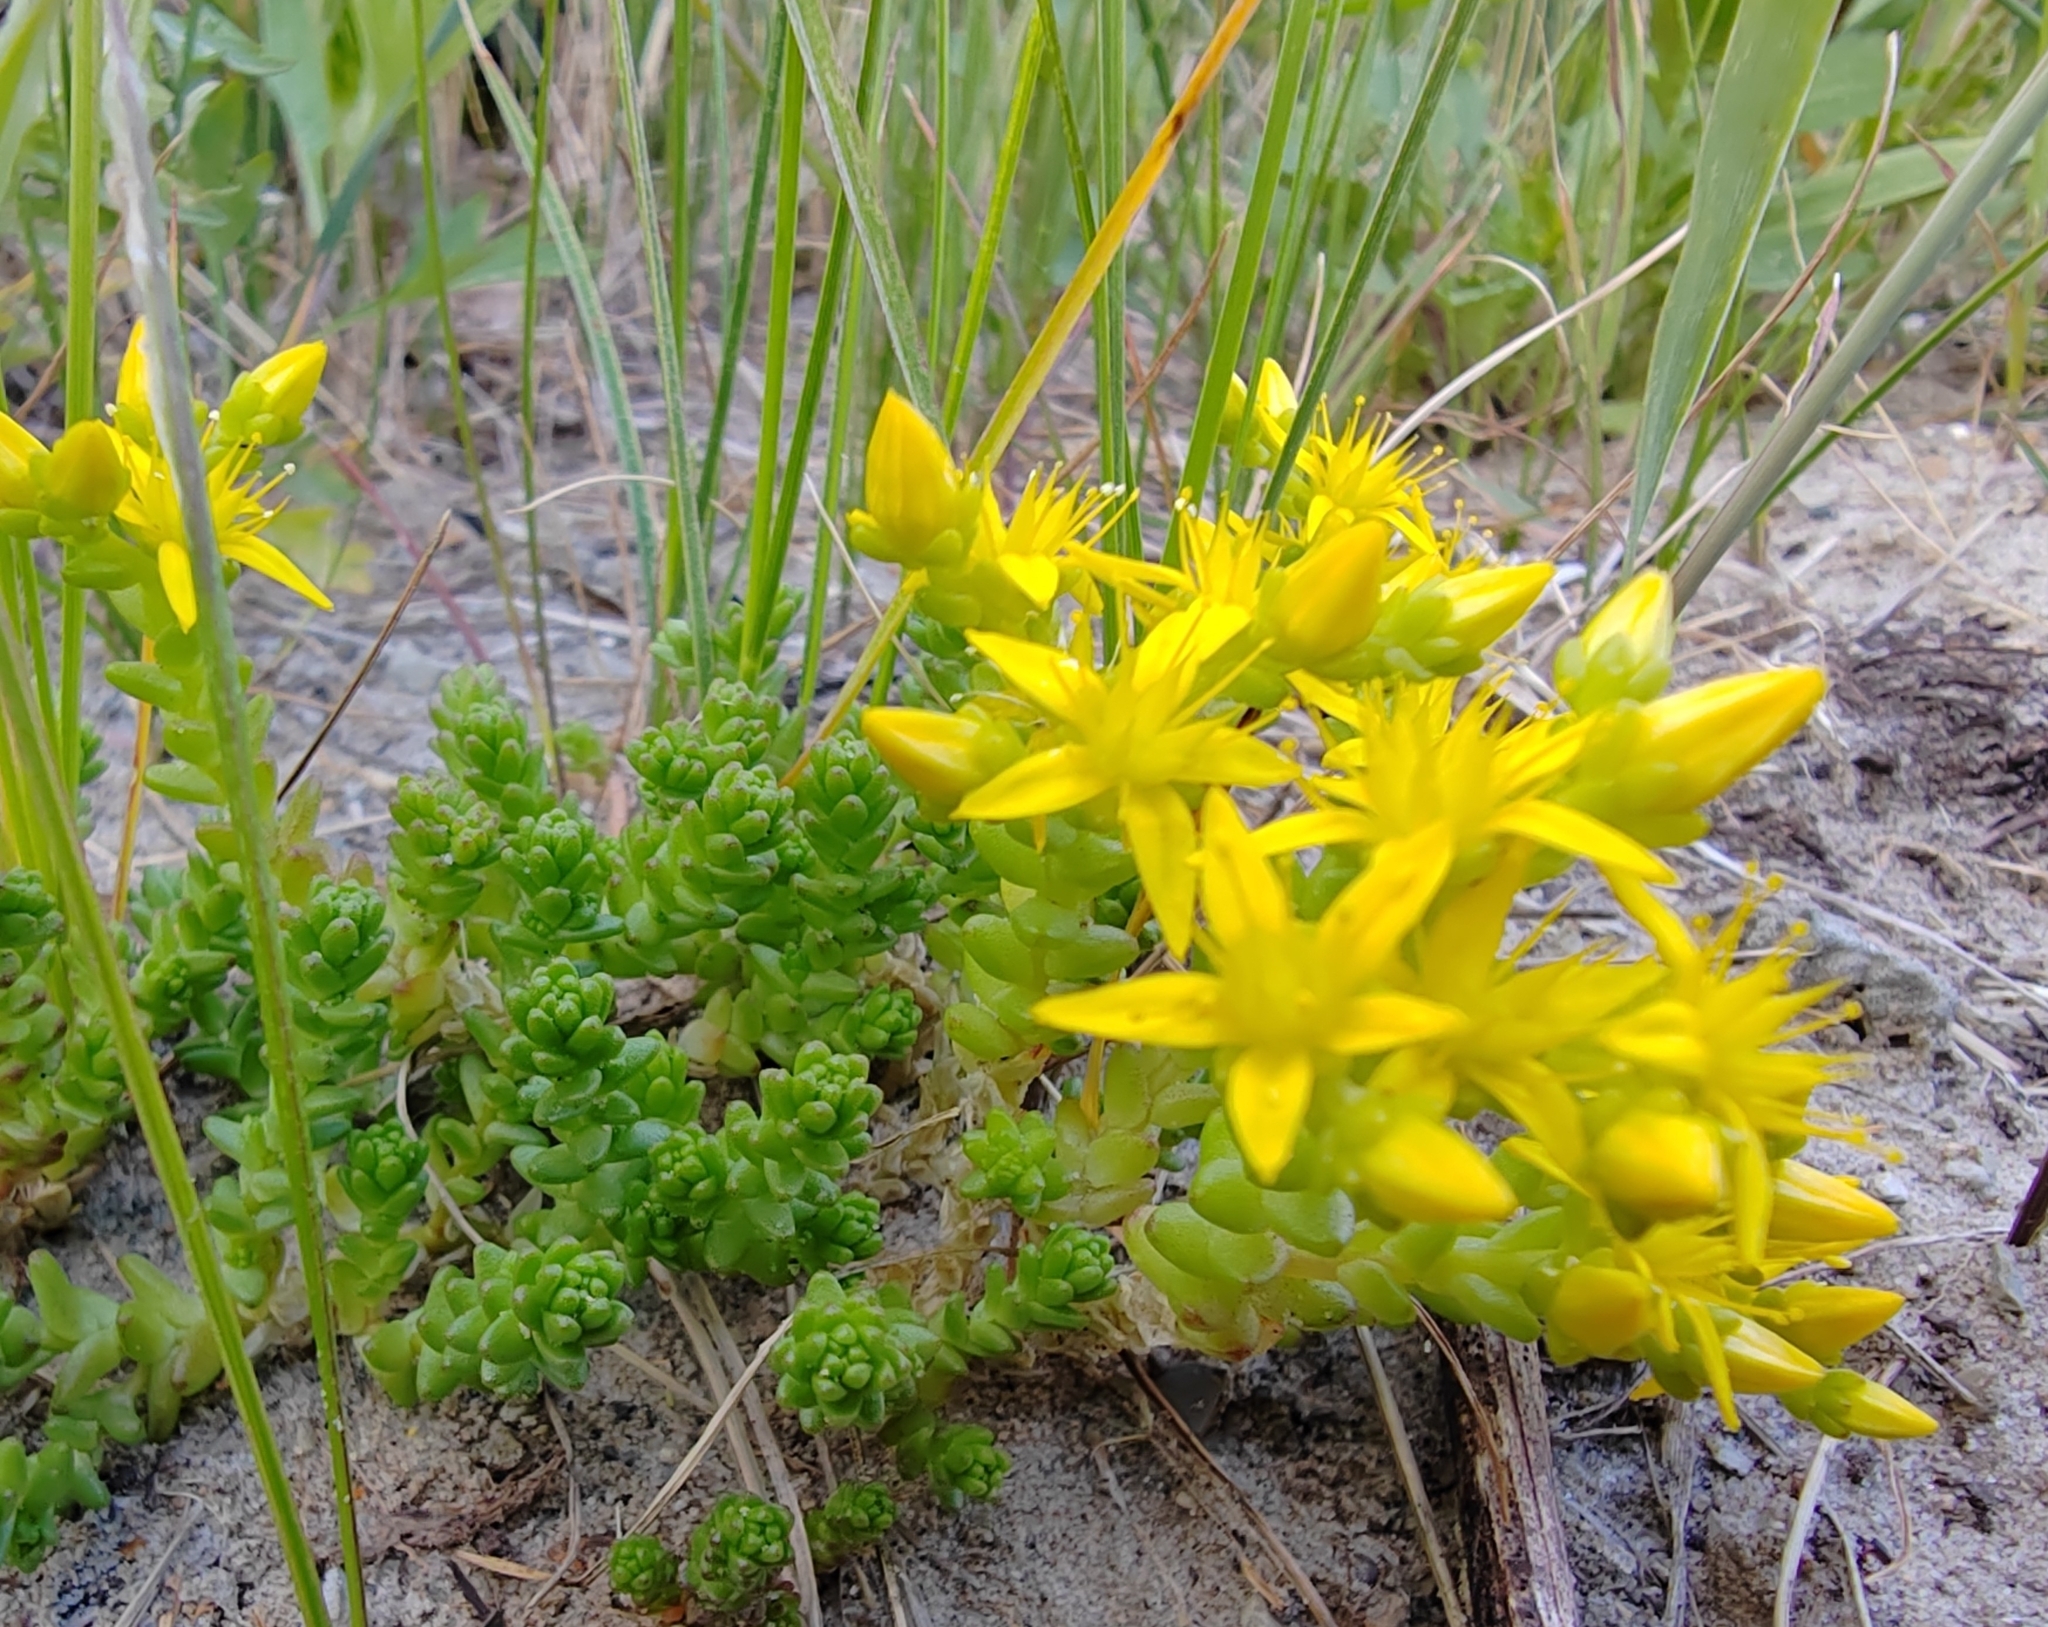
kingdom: Plantae
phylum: Tracheophyta
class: Magnoliopsida
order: Saxifragales
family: Crassulaceae
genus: Sedum
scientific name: Sedum acre
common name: Biting stonecrop
